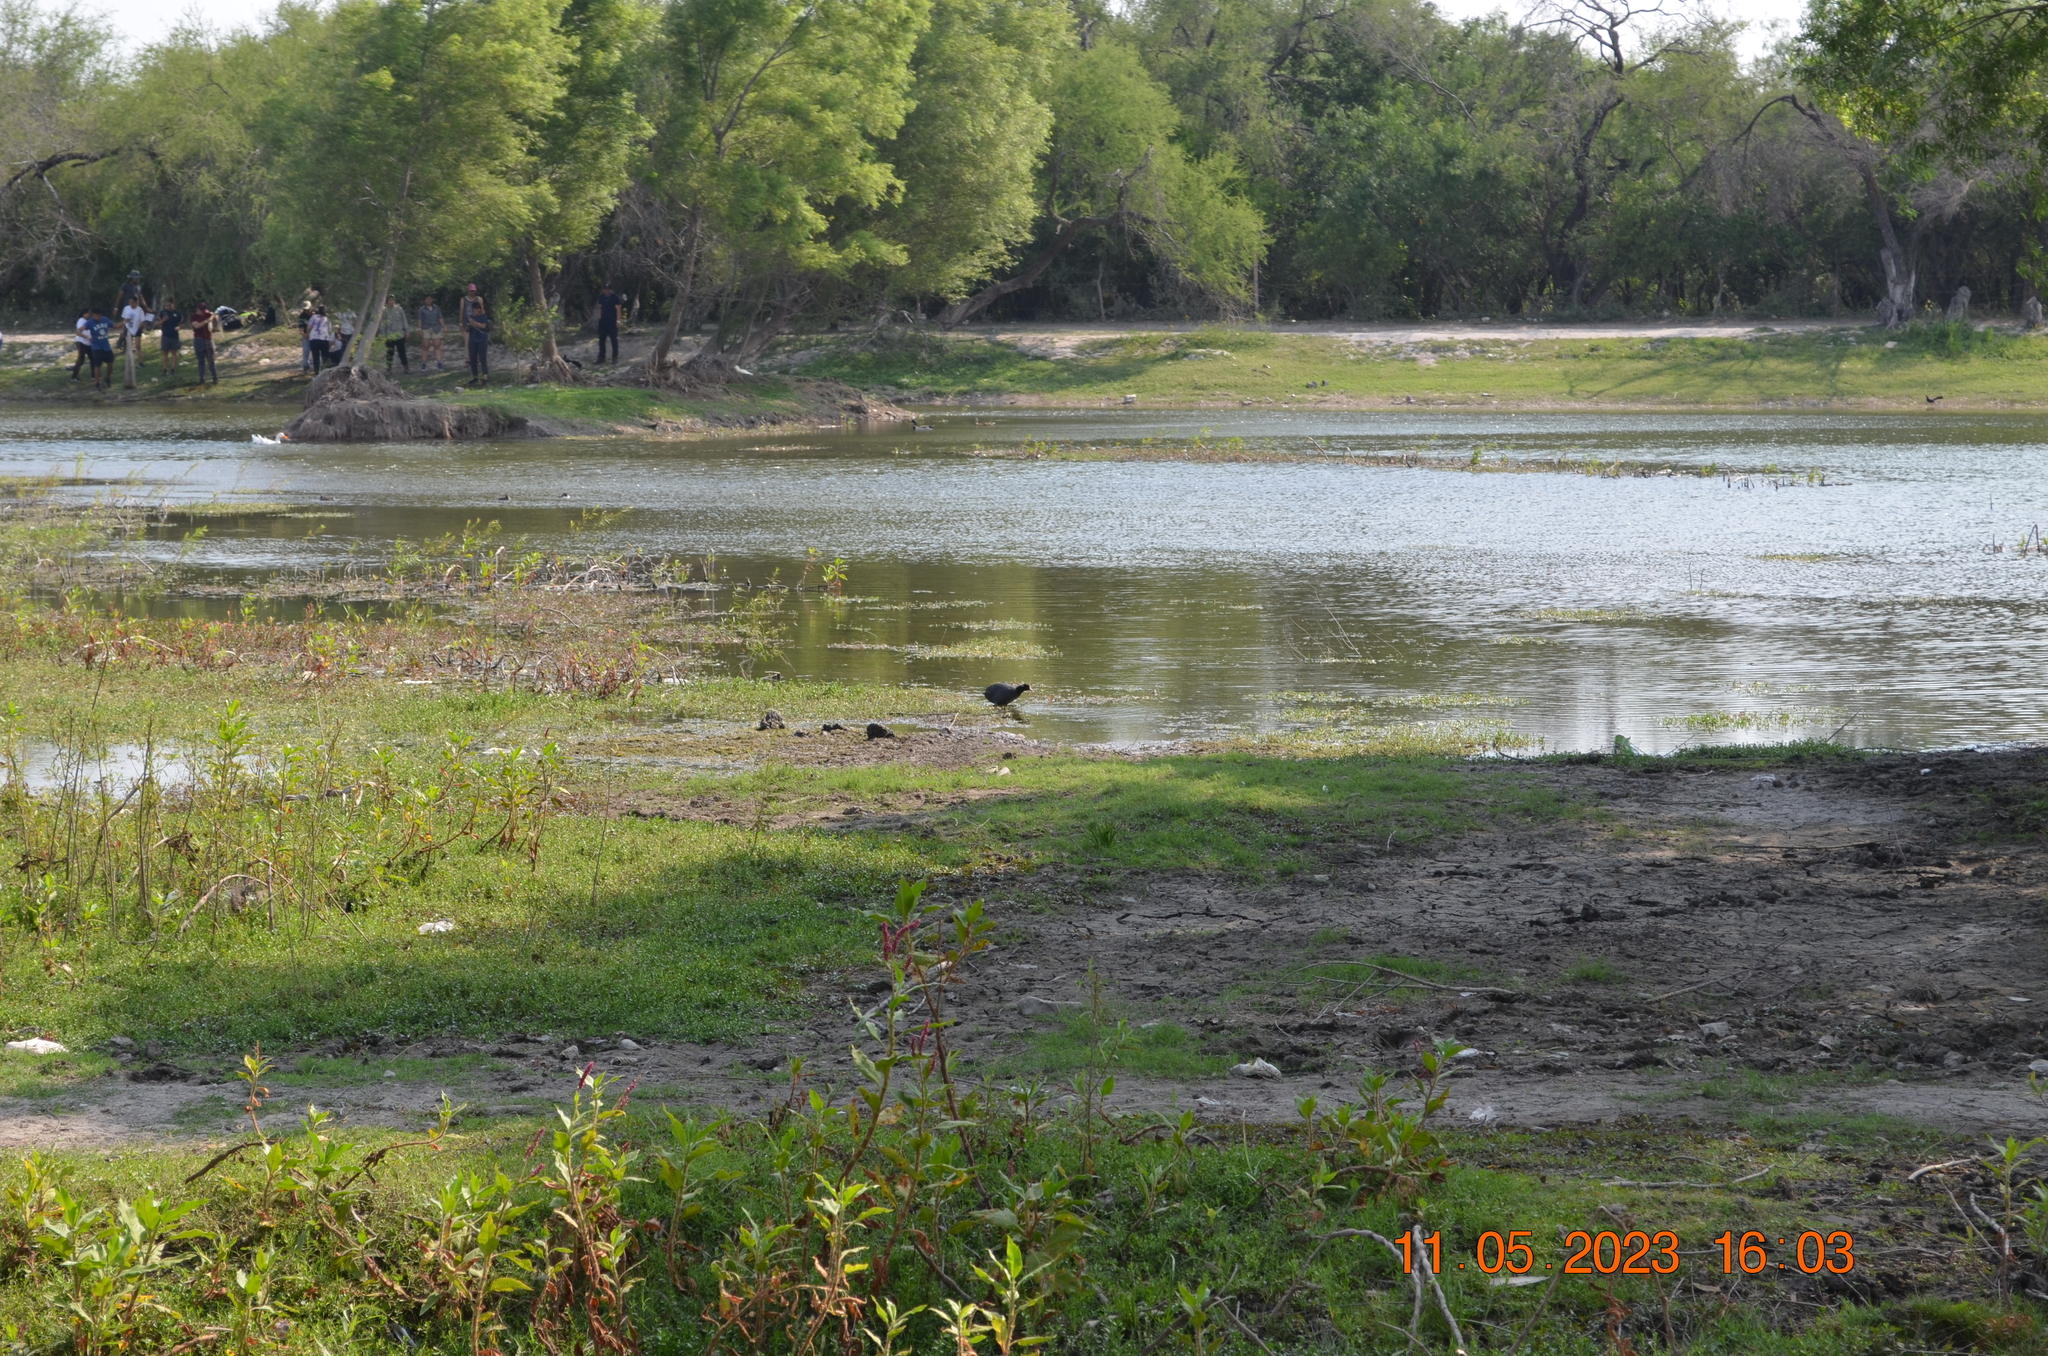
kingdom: Animalia
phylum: Chordata
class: Aves
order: Gruiformes
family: Rallidae
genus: Fulica
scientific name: Fulica americana
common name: American coot
